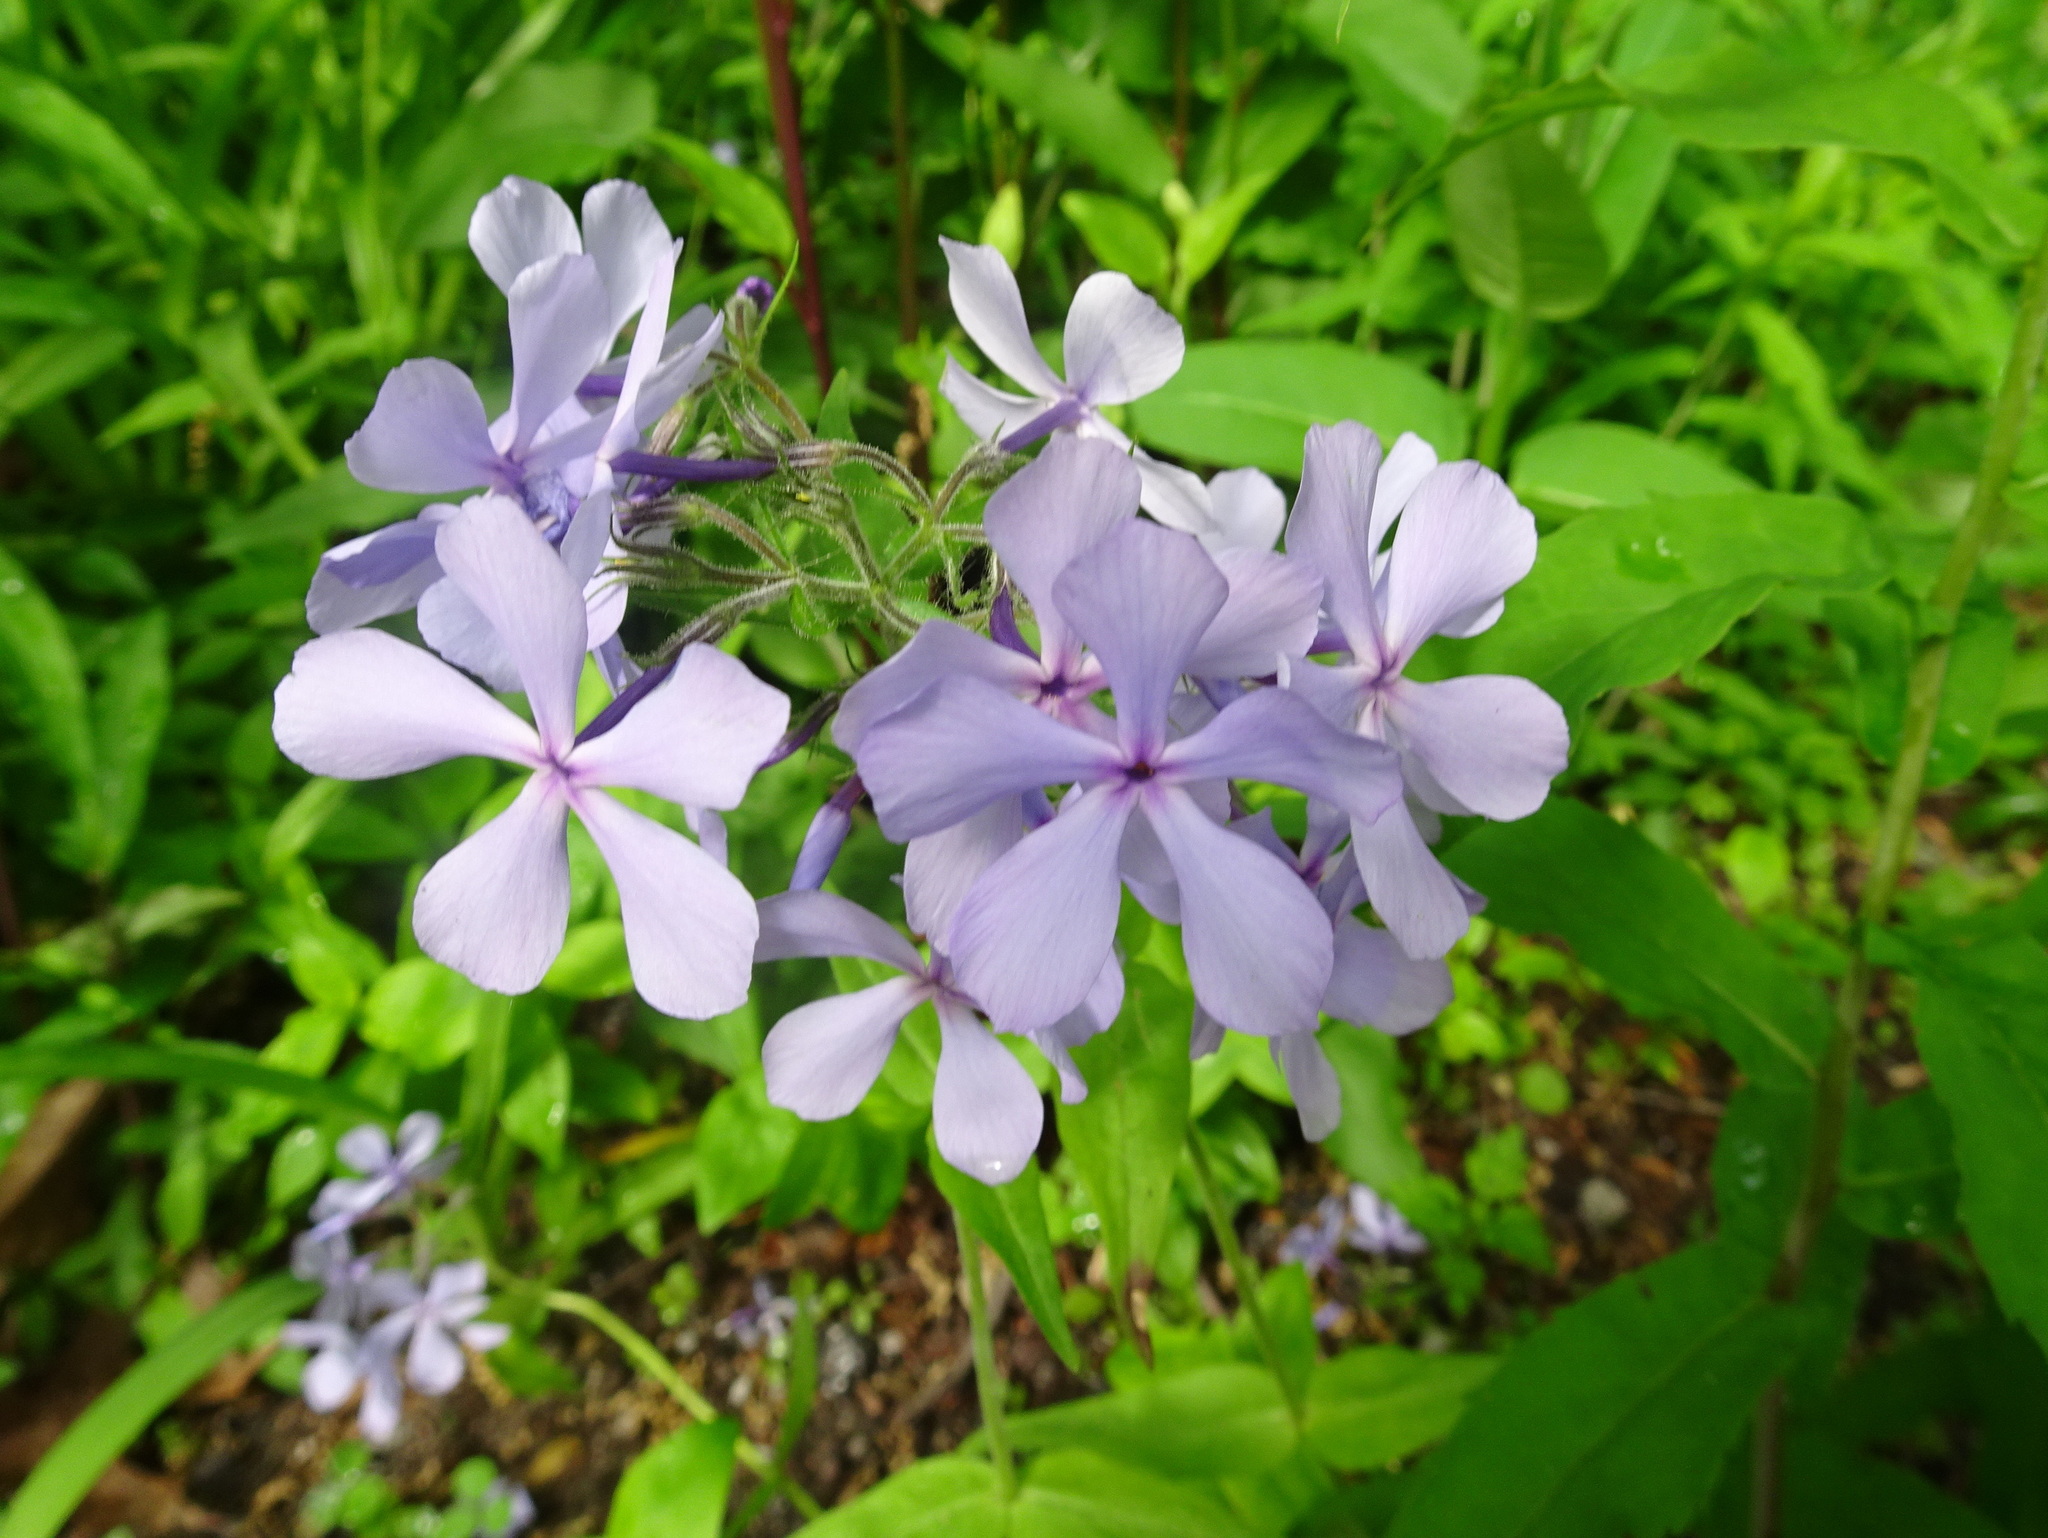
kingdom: Plantae
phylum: Tracheophyta
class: Magnoliopsida
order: Ericales
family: Polemoniaceae
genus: Phlox
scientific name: Phlox divaricata
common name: Blue phlox
